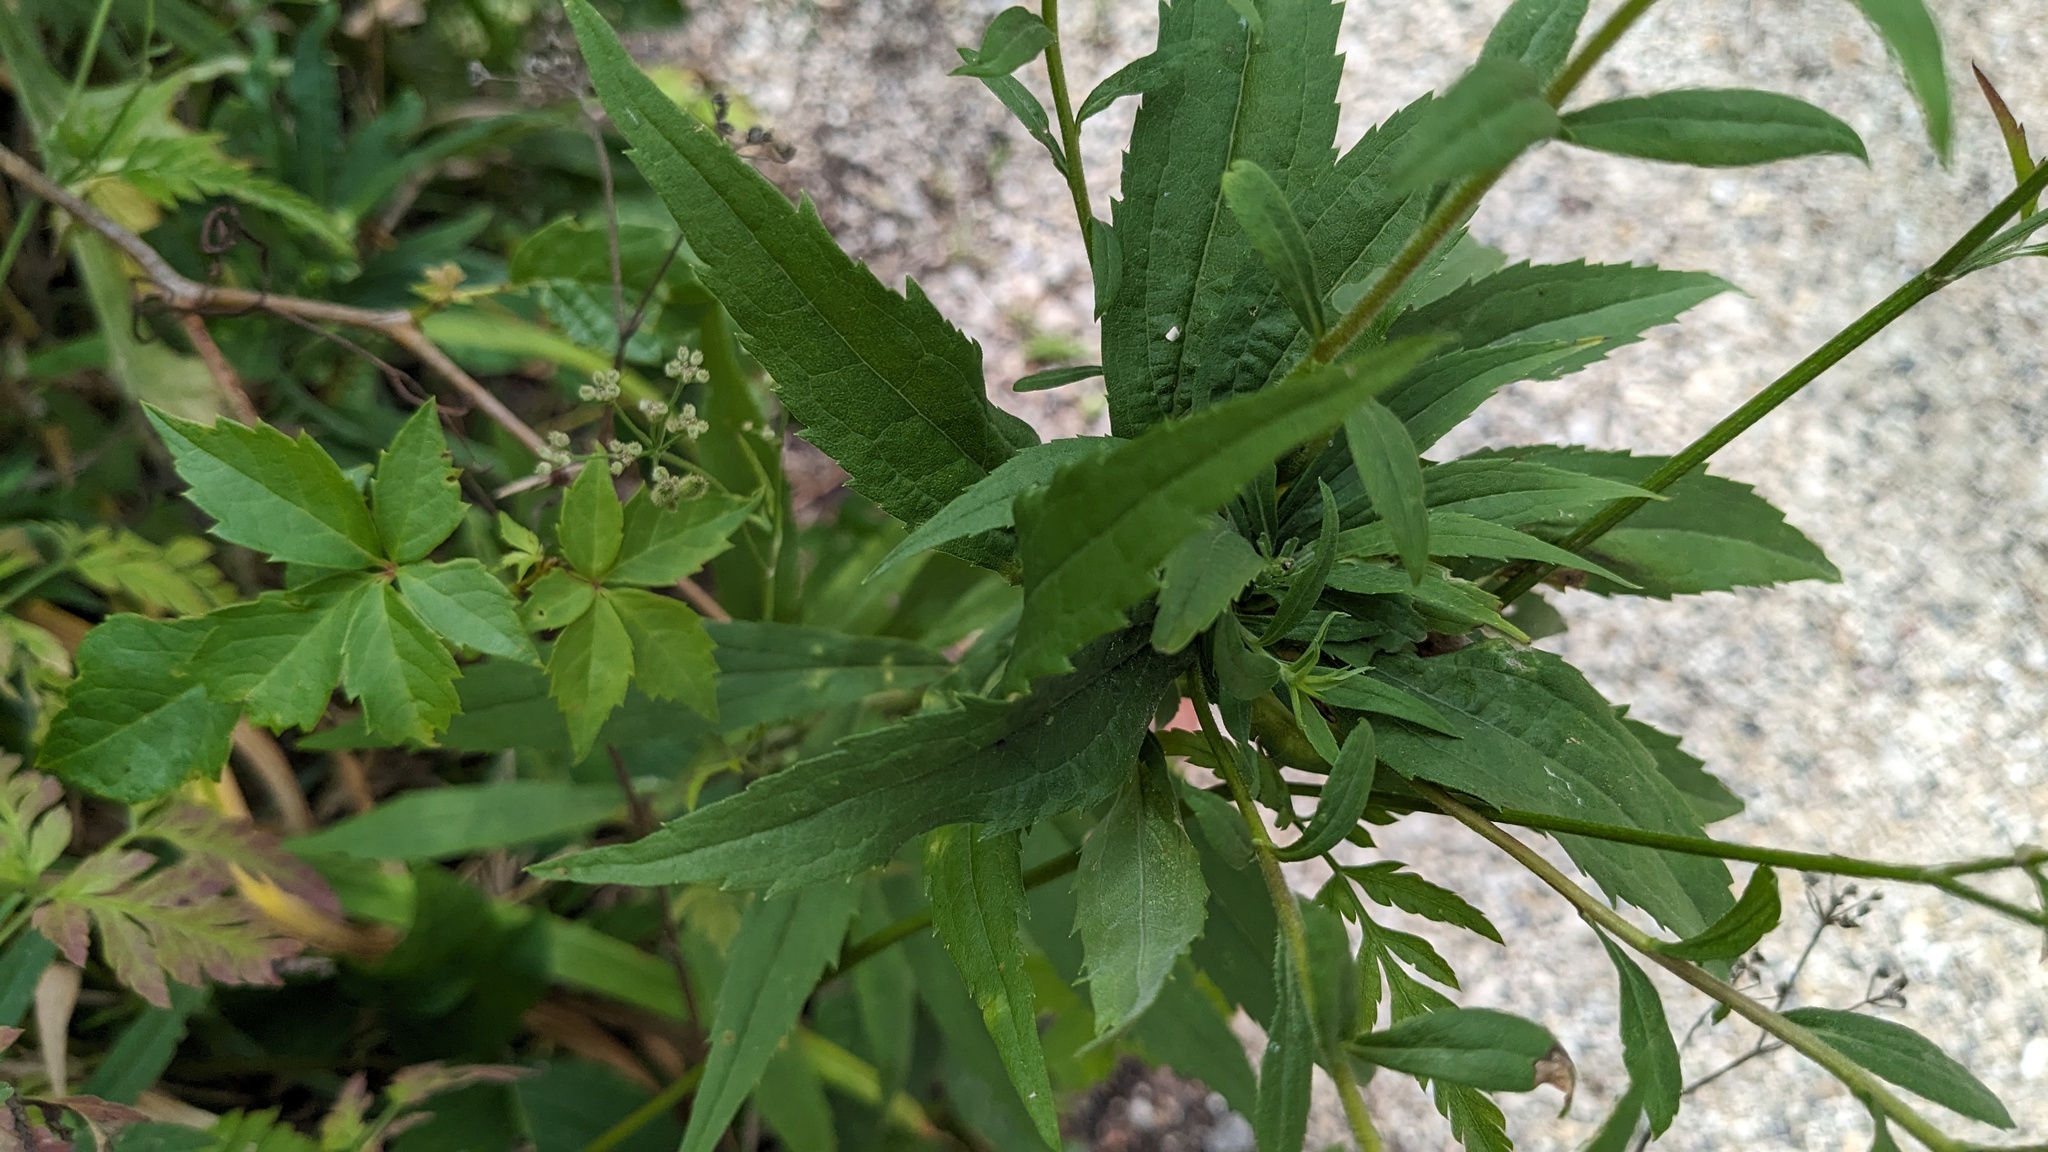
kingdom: Animalia
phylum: Arthropoda
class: Insecta
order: Diptera
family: Cecidomyiidae
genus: Rhopalomyia
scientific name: Rhopalomyia solidaginis
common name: Goldenrod bunch gall midge
